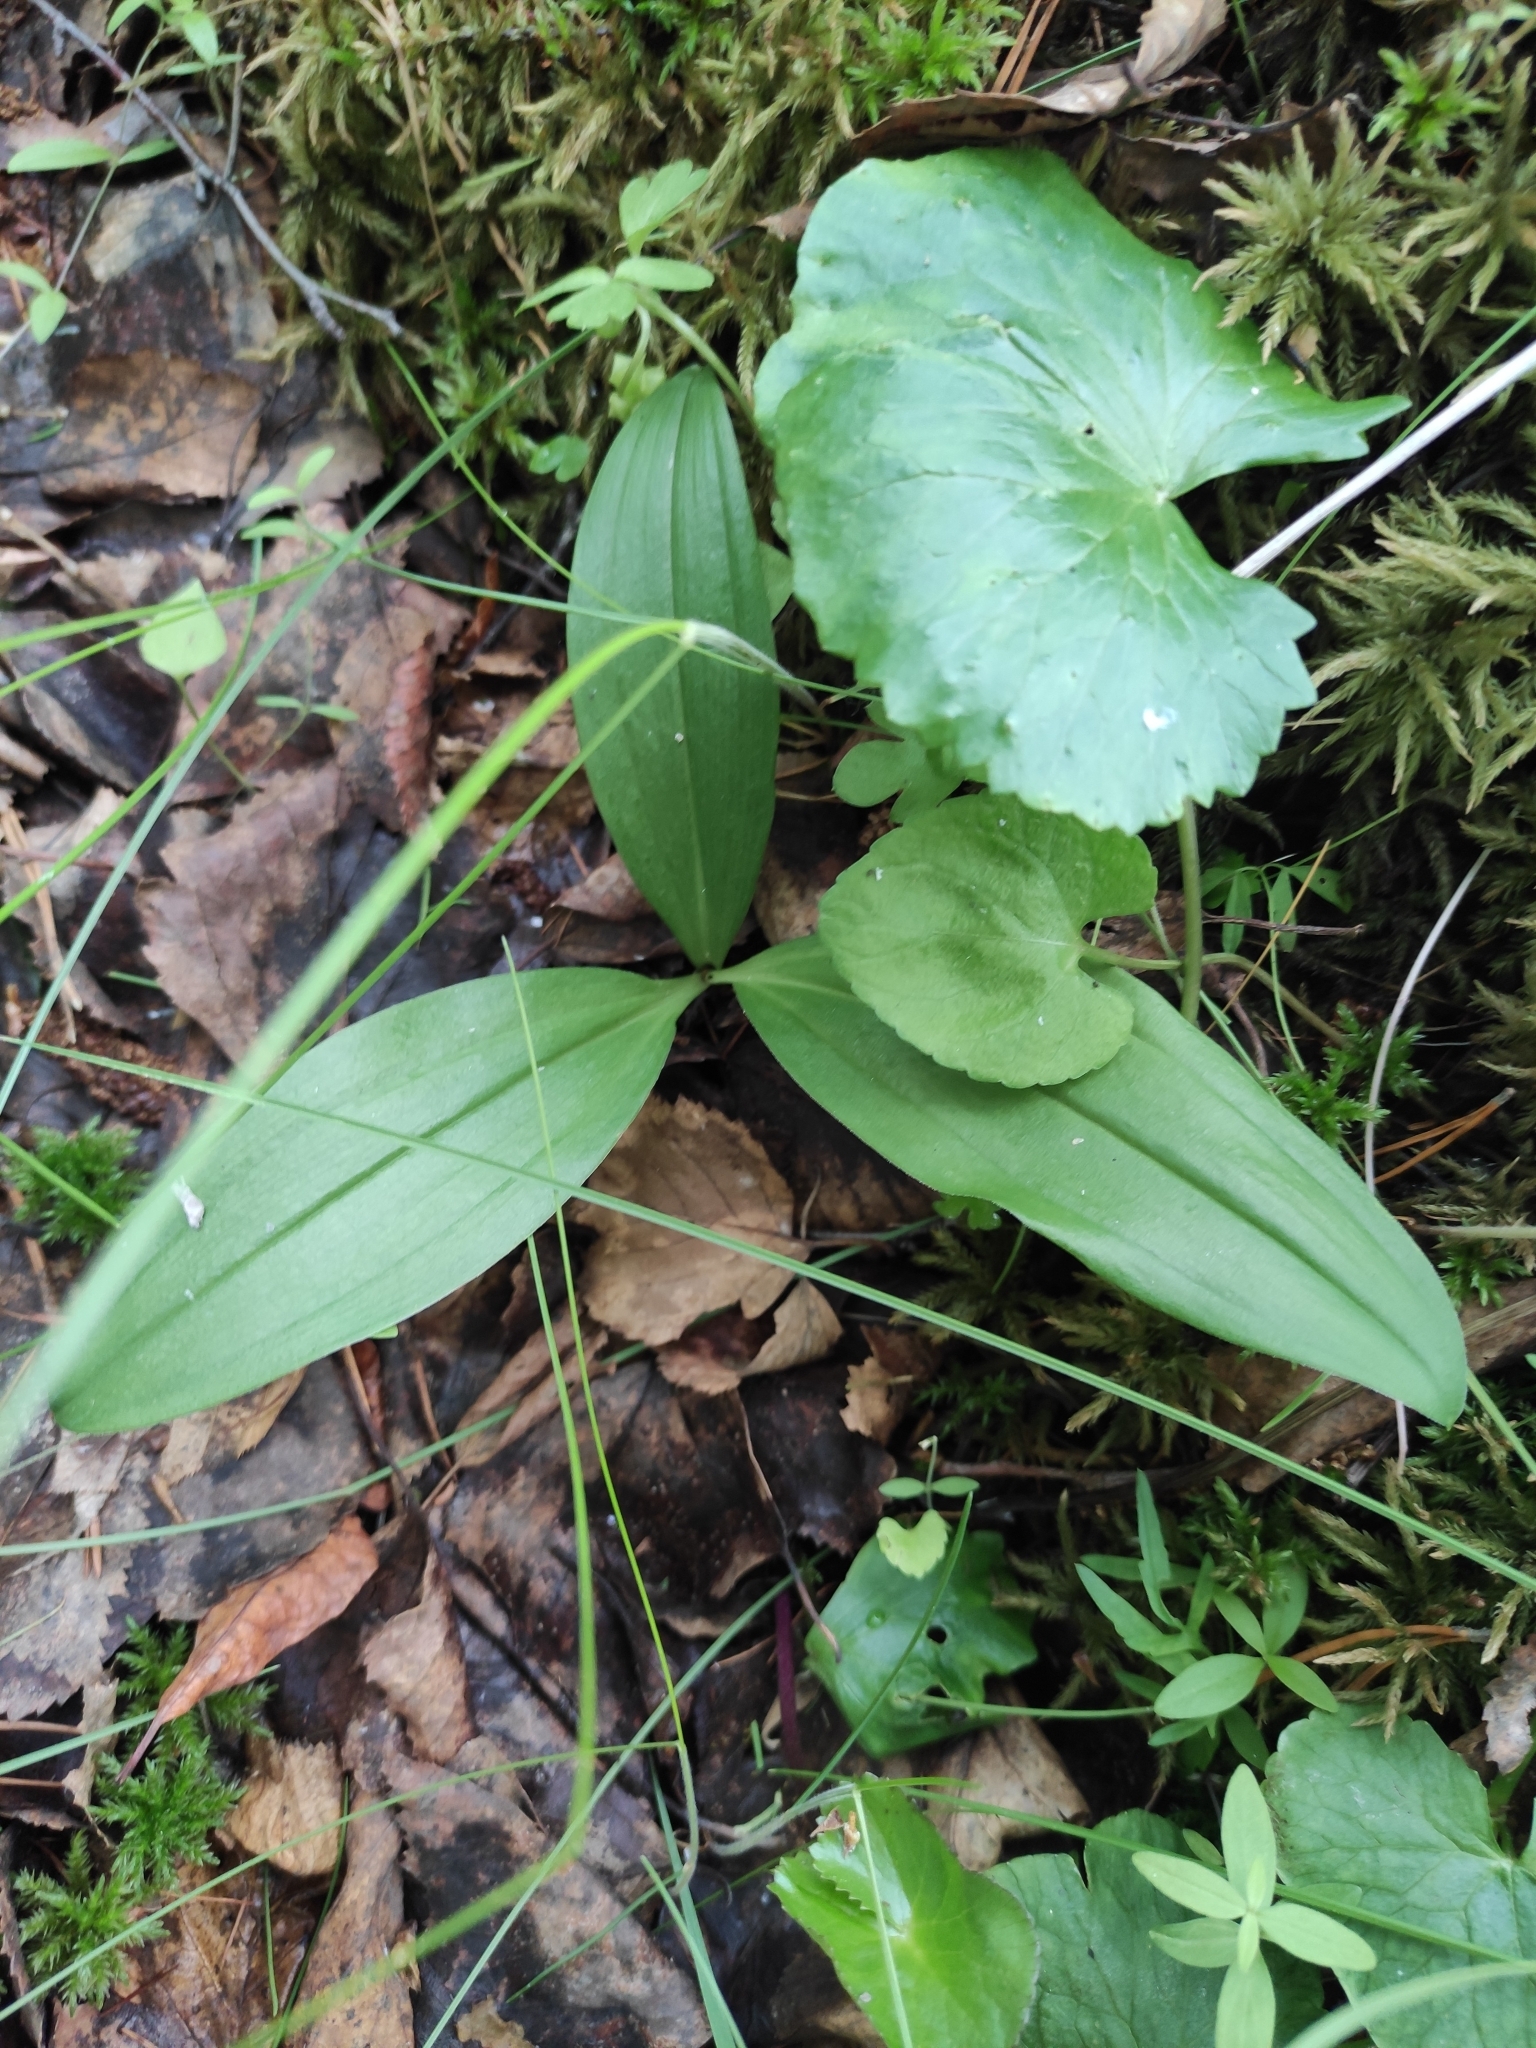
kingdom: Plantae
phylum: Tracheophyta
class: Liliopsida
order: Asparagales
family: Asparagaceae
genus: Maianthemum
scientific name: Maianthemum trifolium
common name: Swamp false solomon's seal
